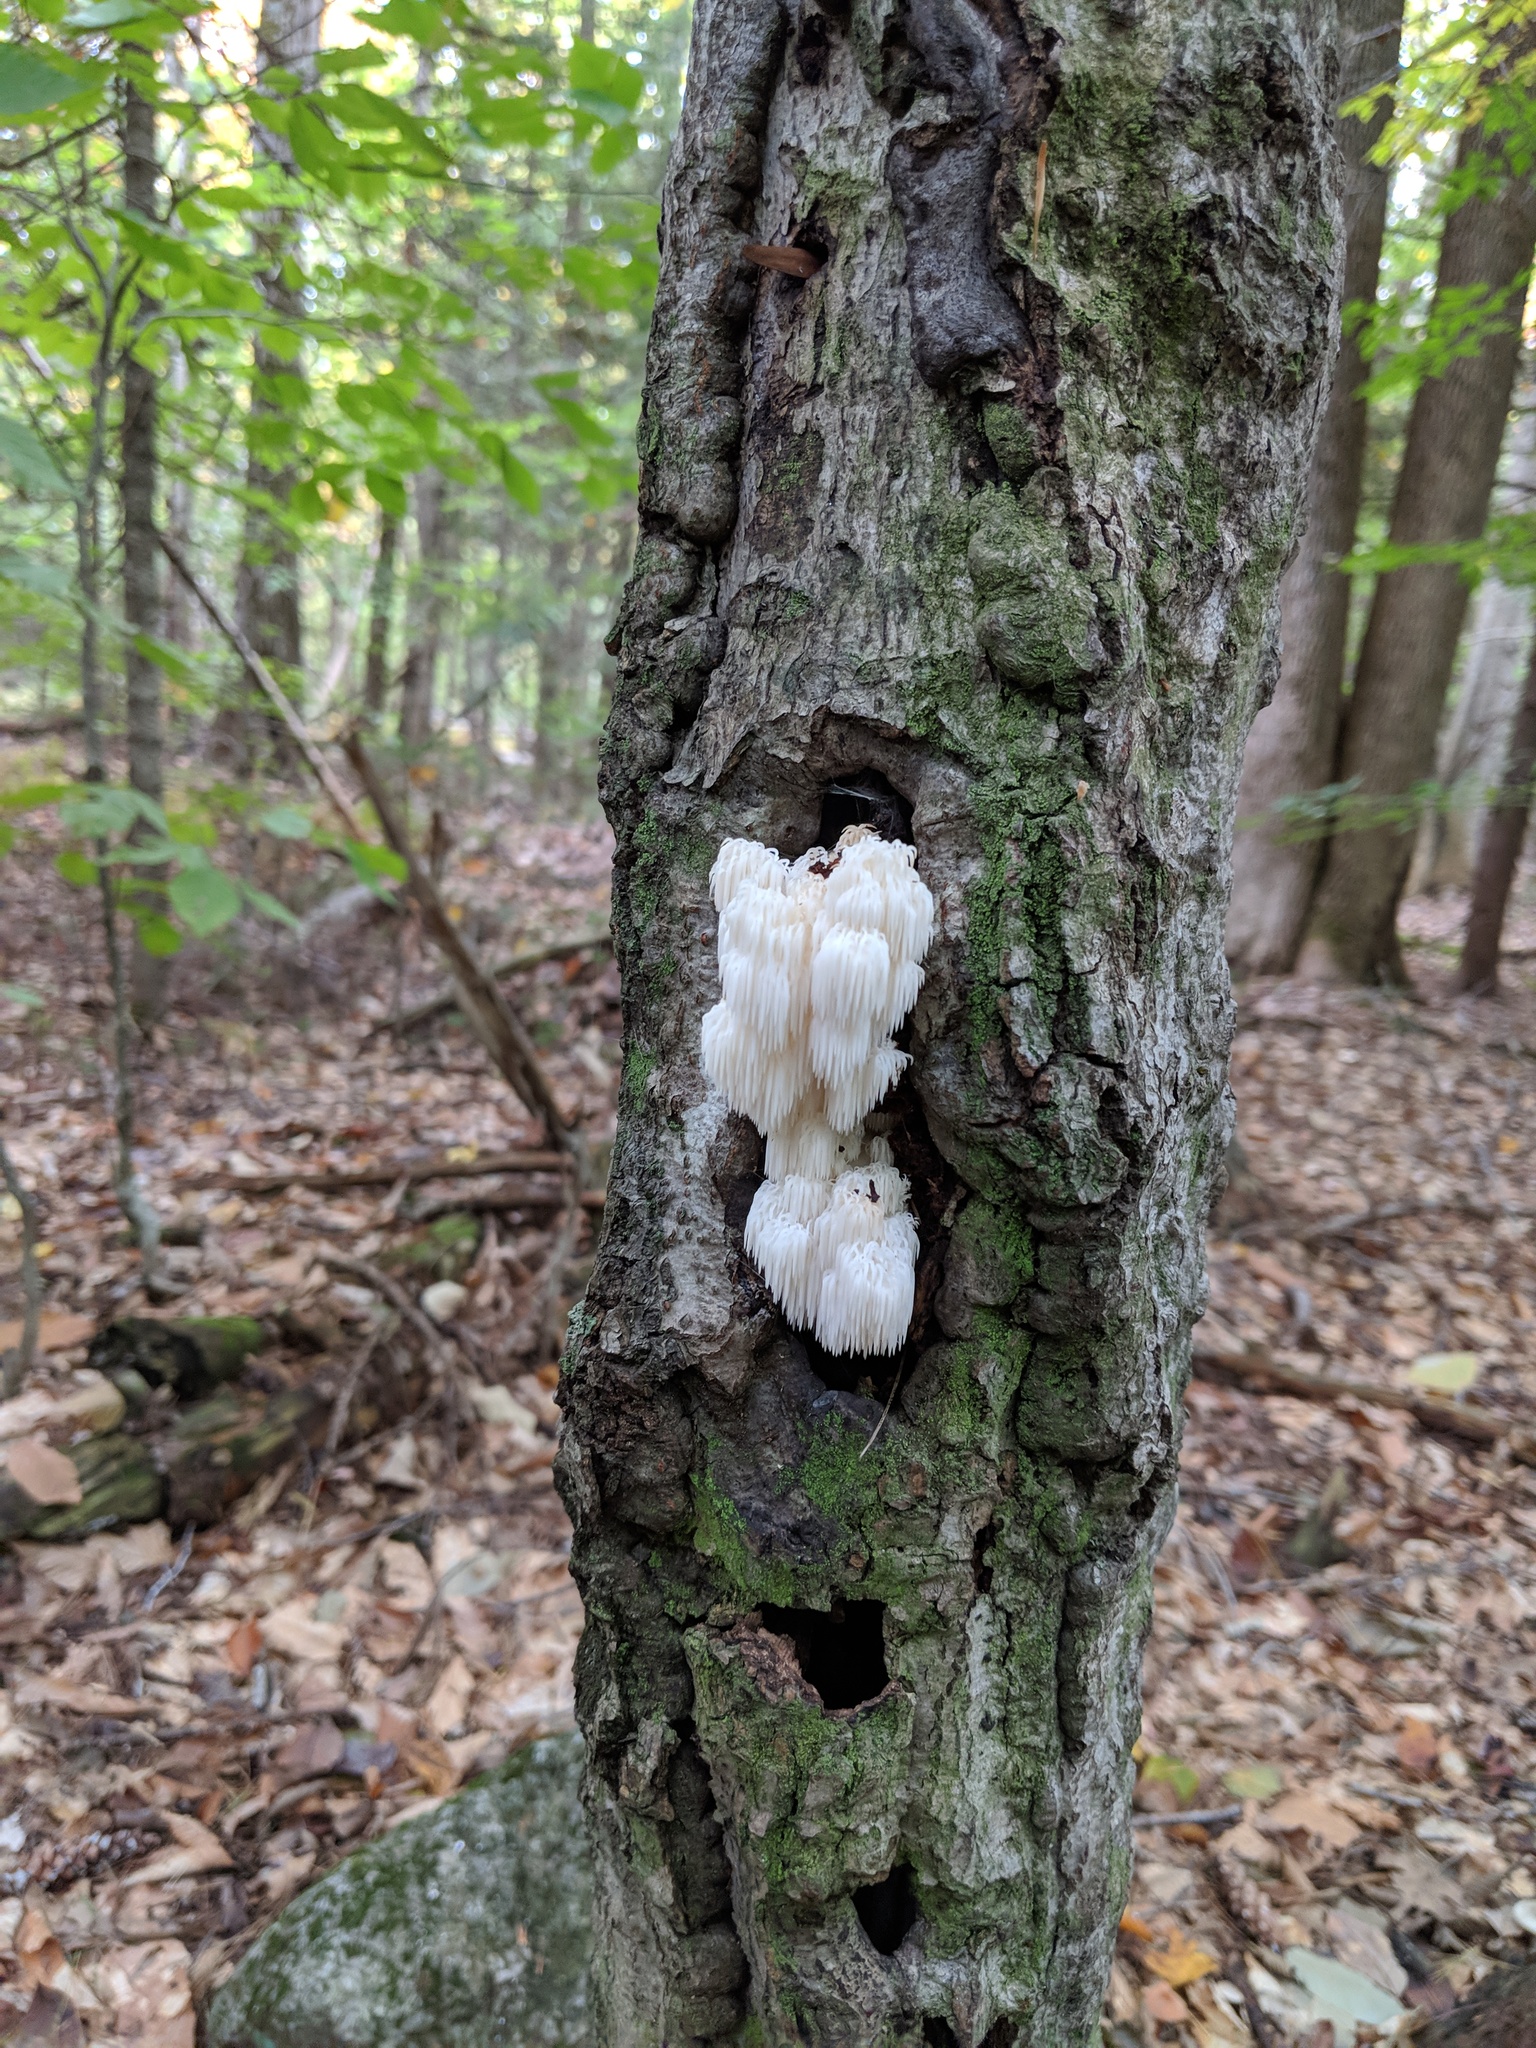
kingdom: Fungi
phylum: Basidiomycota
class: Agaricomycetes
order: Russulales
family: Hericiaceae
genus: Hericium
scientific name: Hericium americanum
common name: Bear's head tooth
